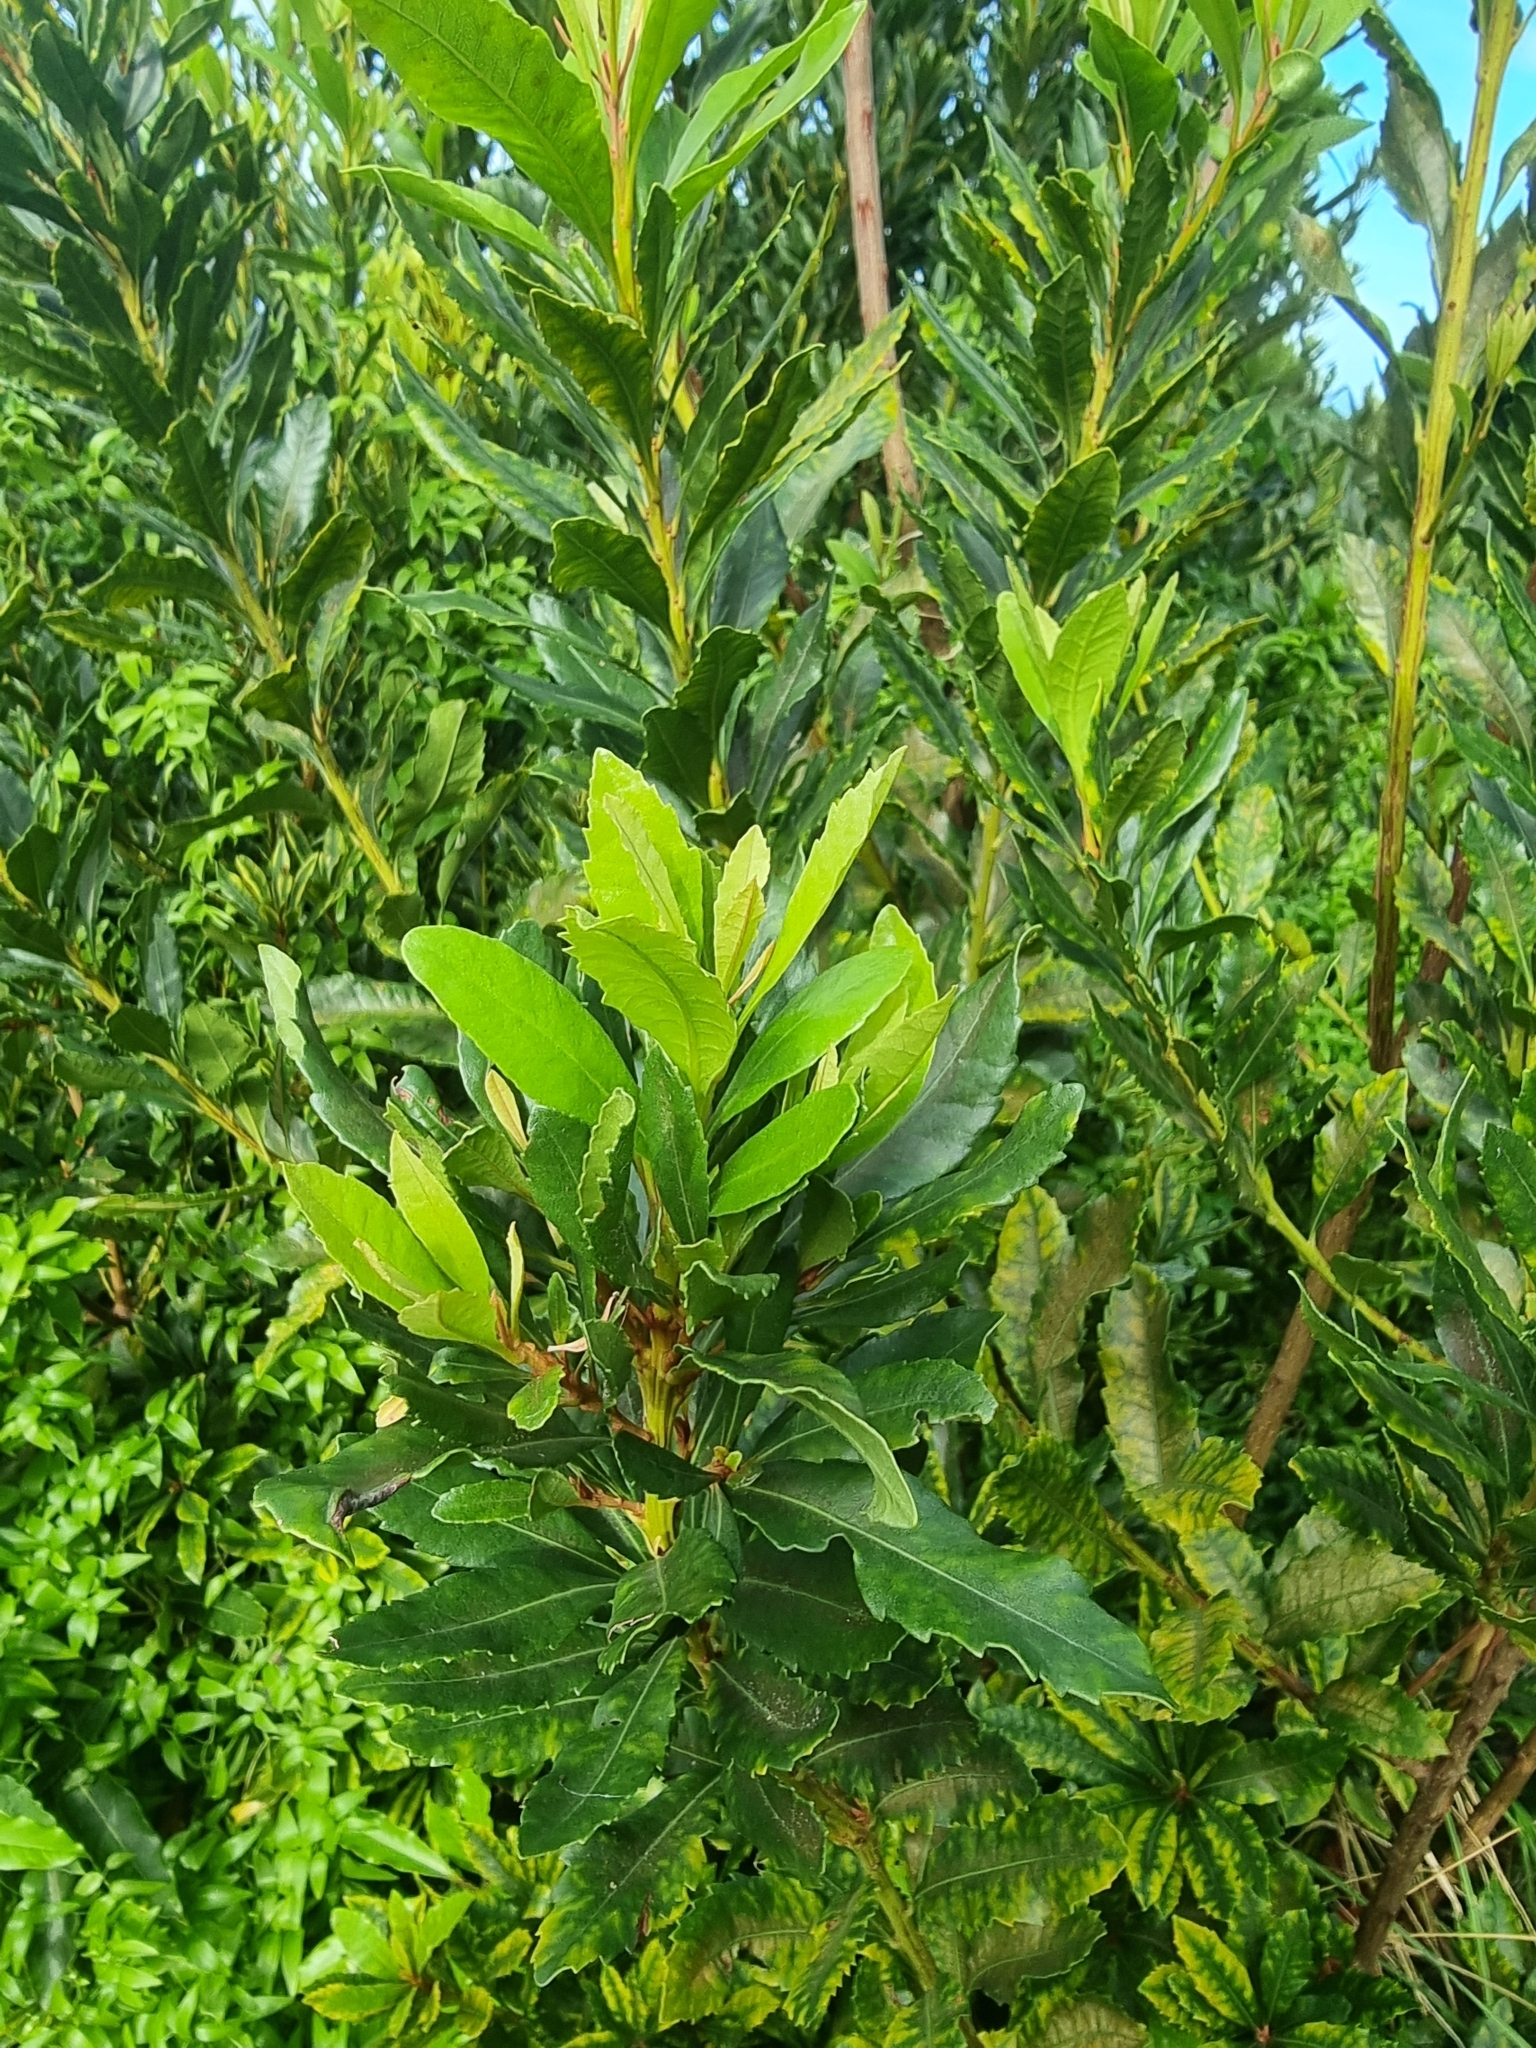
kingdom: Plantae
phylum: Tracheophyta
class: Magnoliopsida
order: Fagales
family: Myricaceae
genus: Morella
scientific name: Morella faya
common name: Firetree
